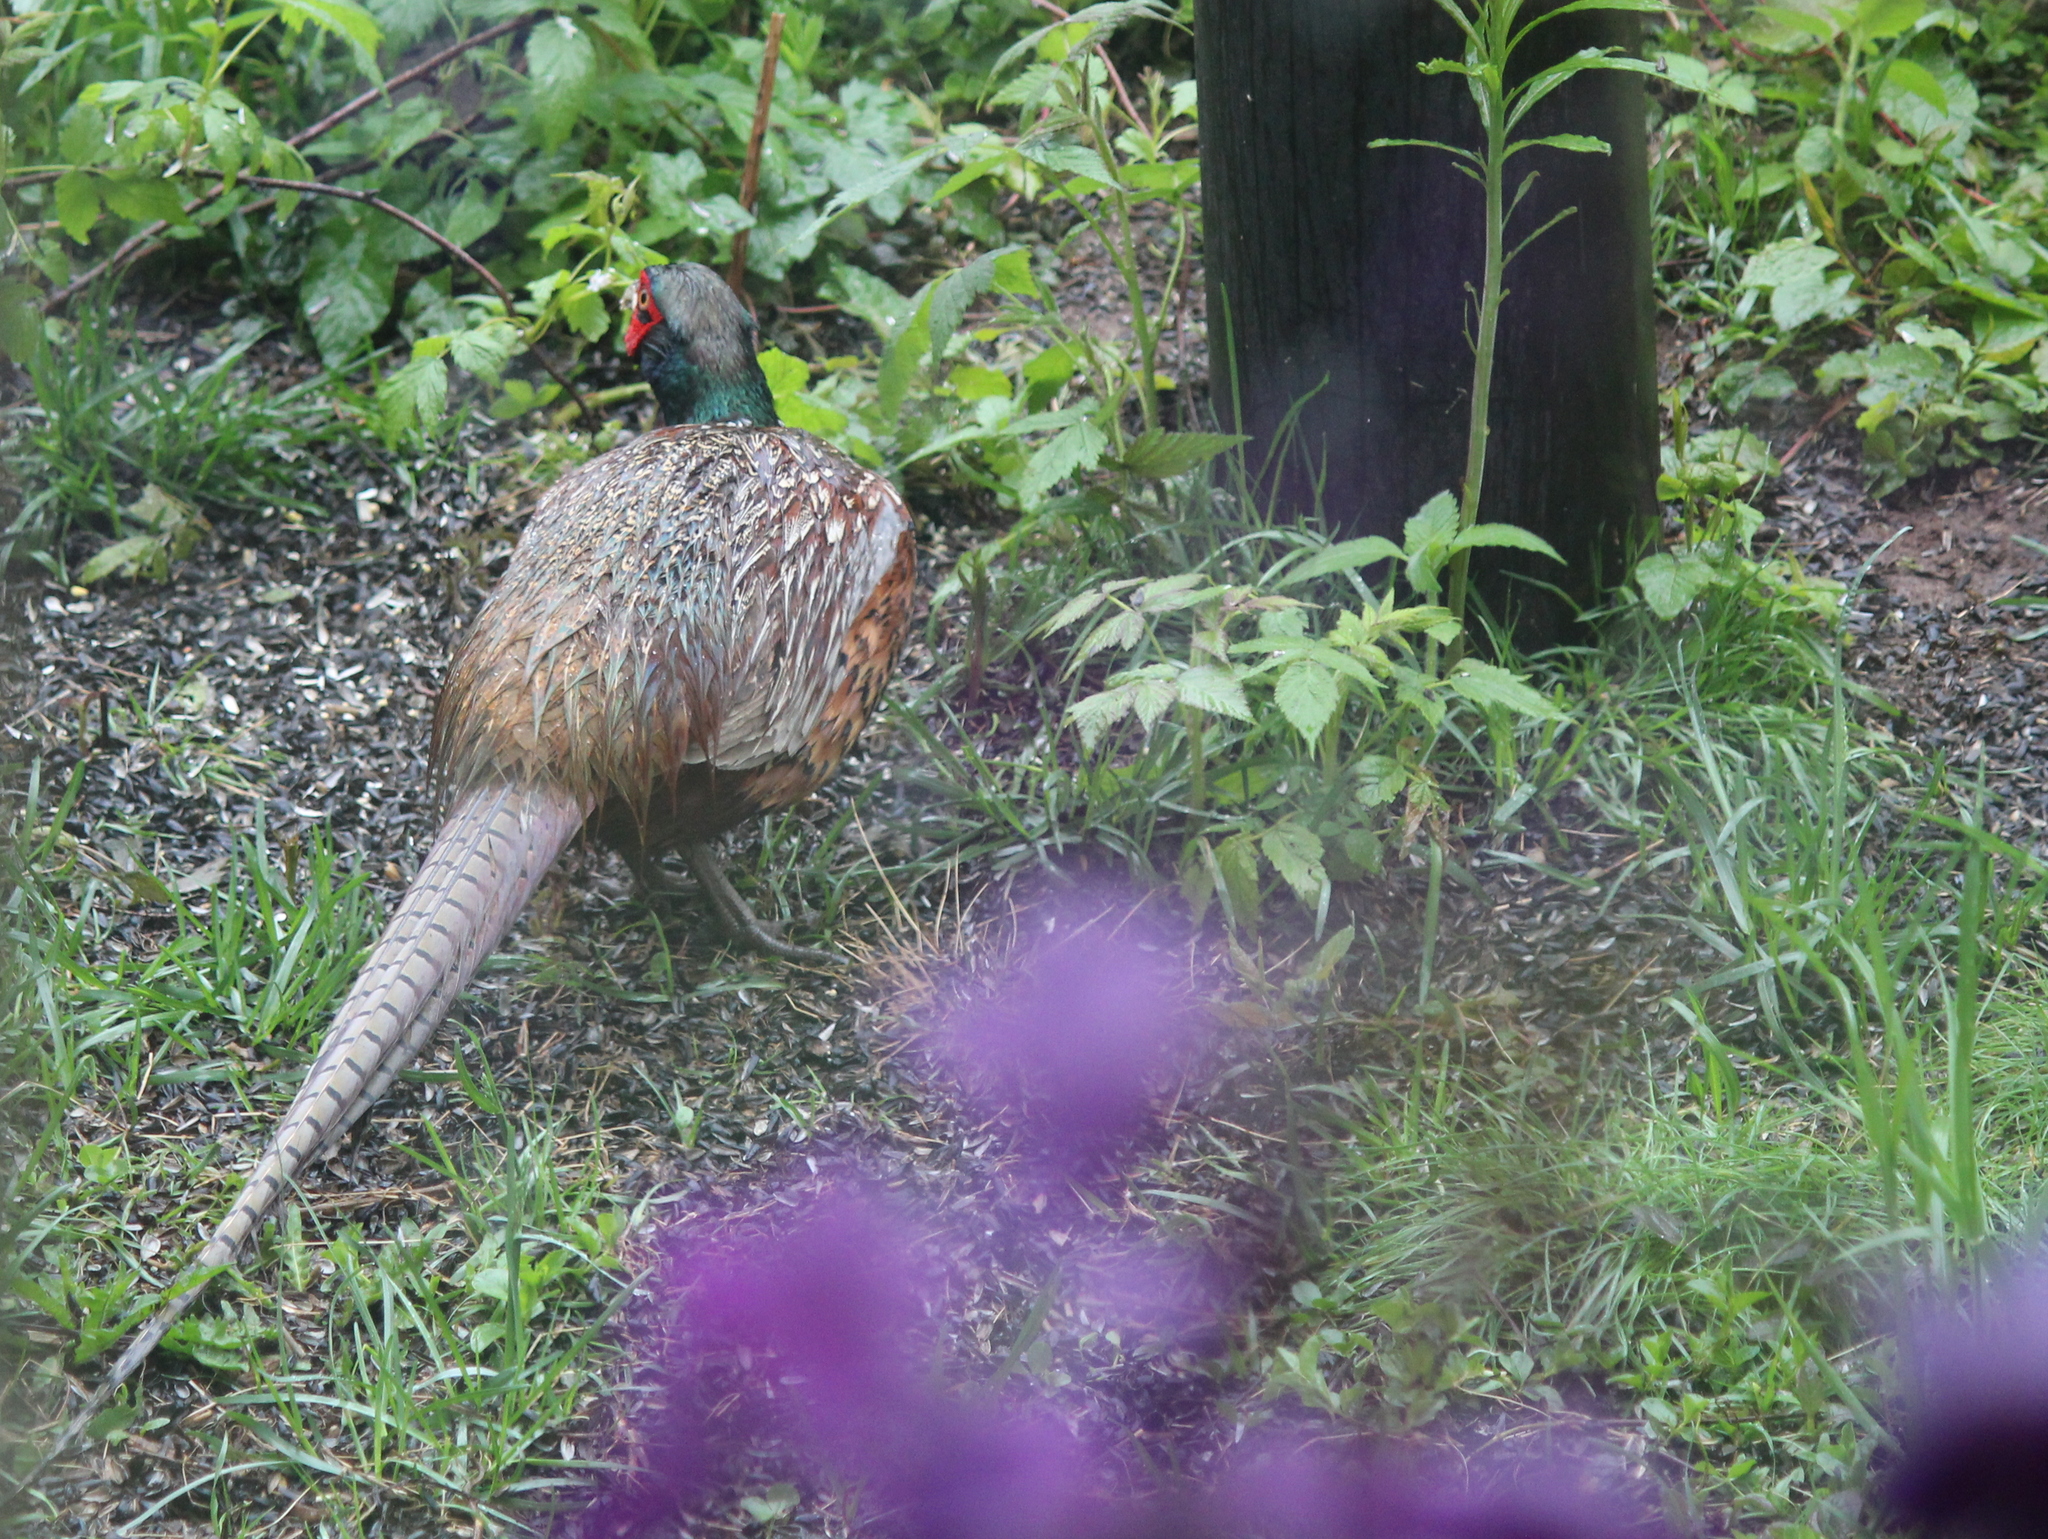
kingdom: Animalia
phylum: Chordata
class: Aves
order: Galliformes
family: Phasianidae
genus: Phasianus
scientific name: Phasianus colchicus
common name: Common pheasant
